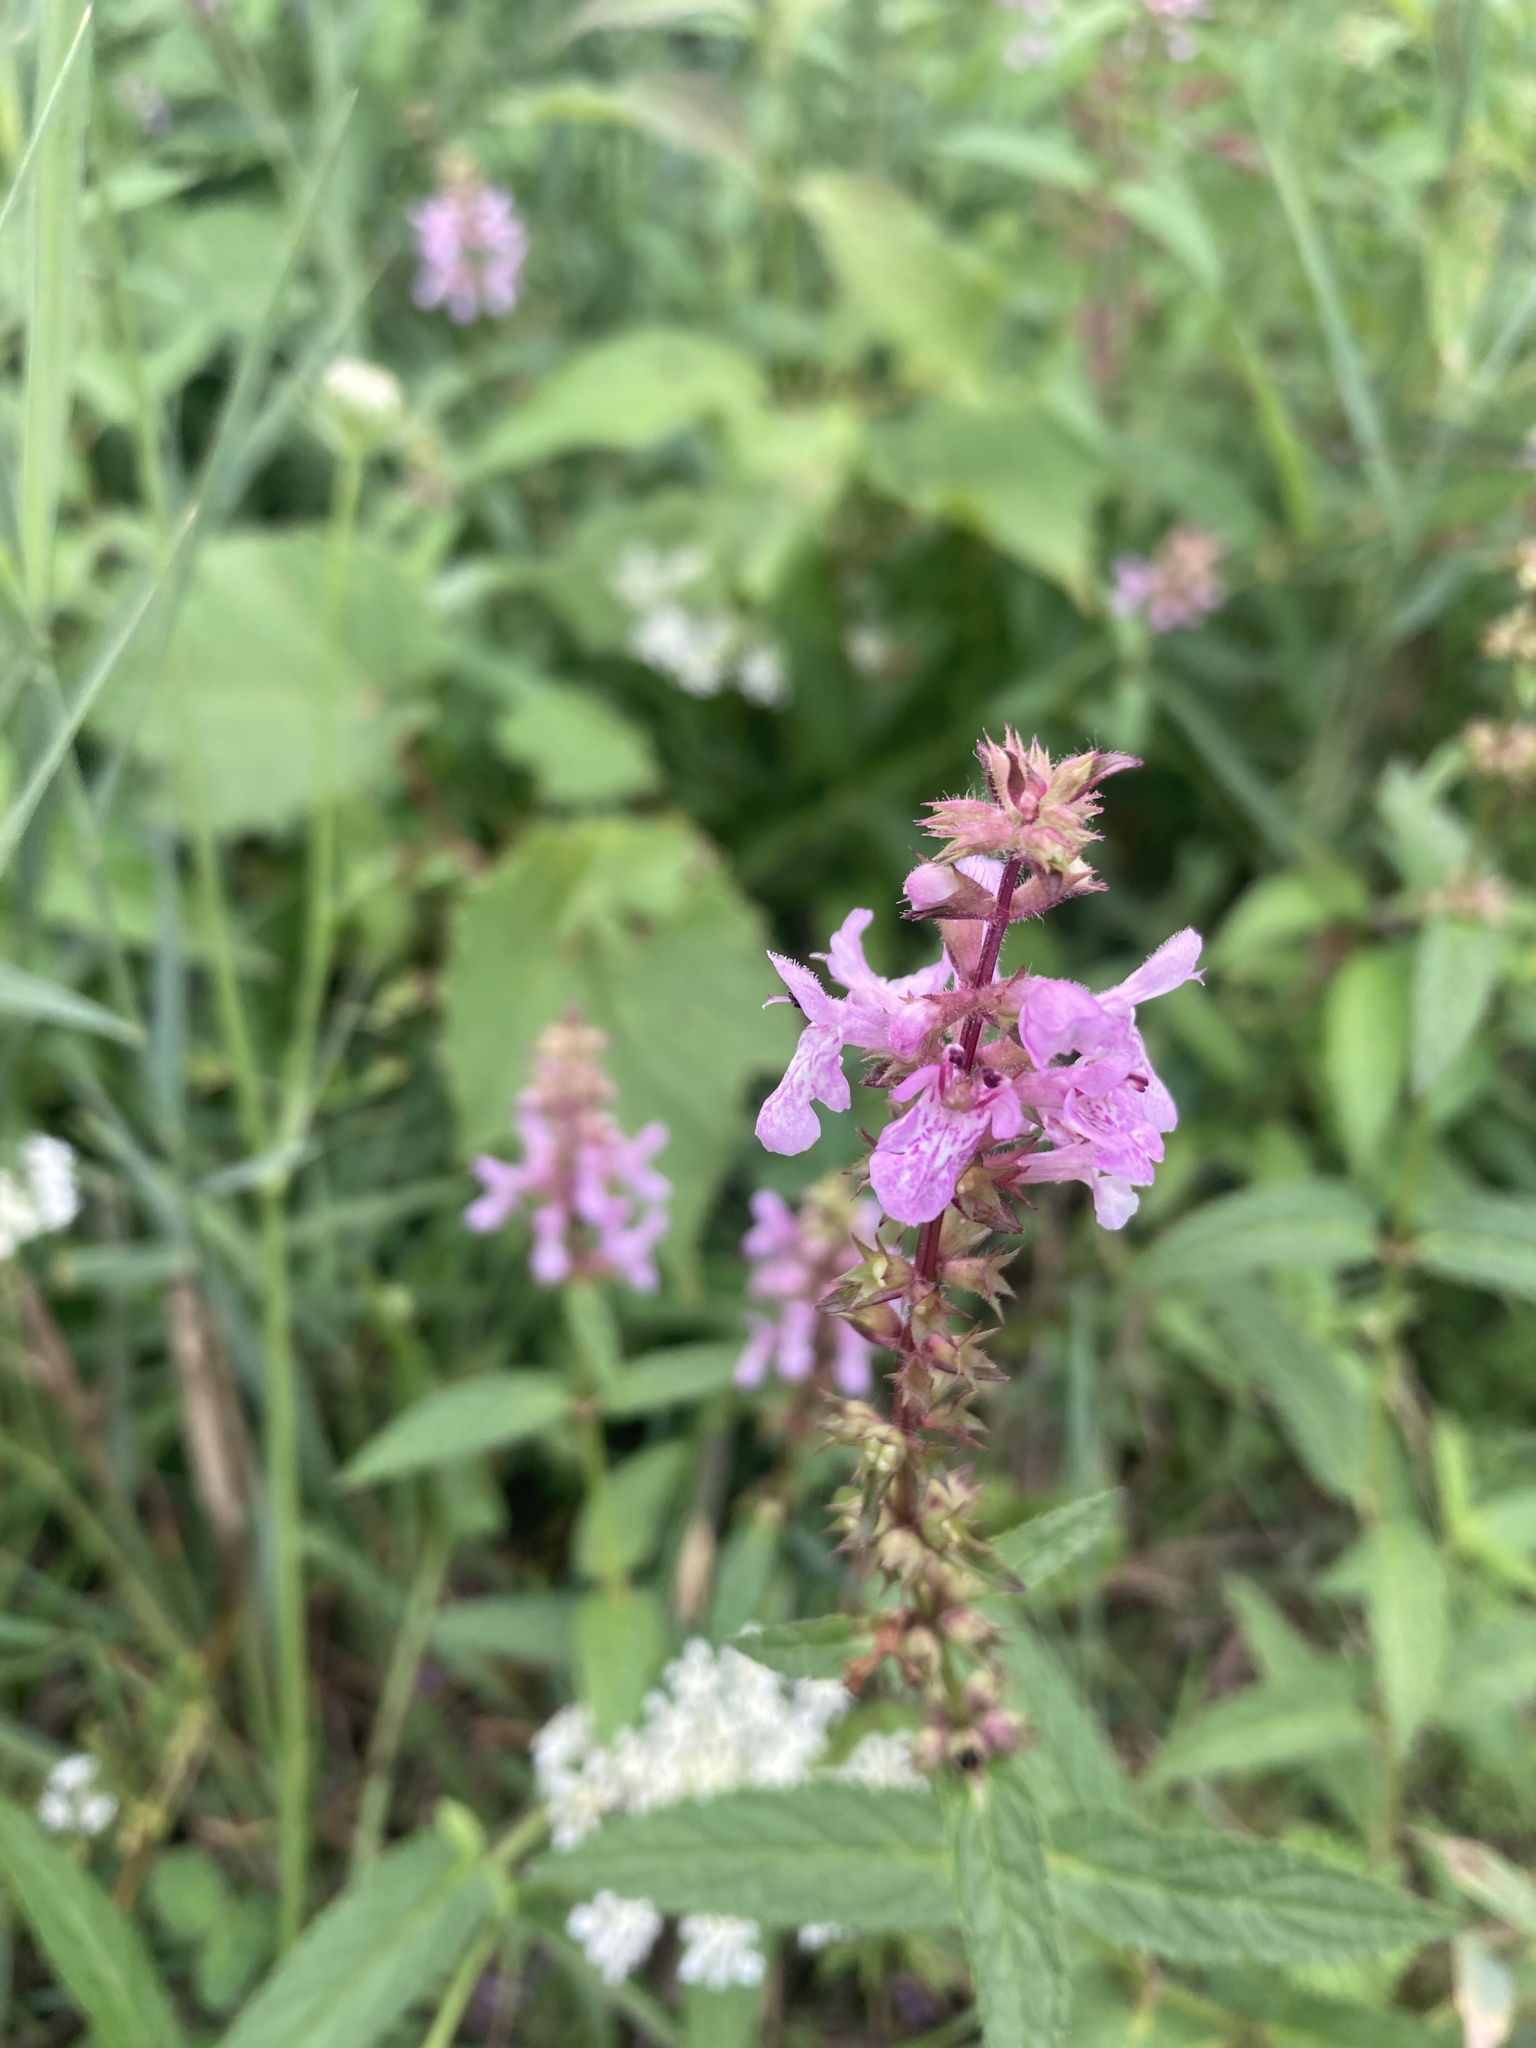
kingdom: Plantae
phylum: Tracheophyta
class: Magnoliopsida
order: Lamiales
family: Lamiaceae
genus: Stachys
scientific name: Stachys palustris
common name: Marsh woundwort
